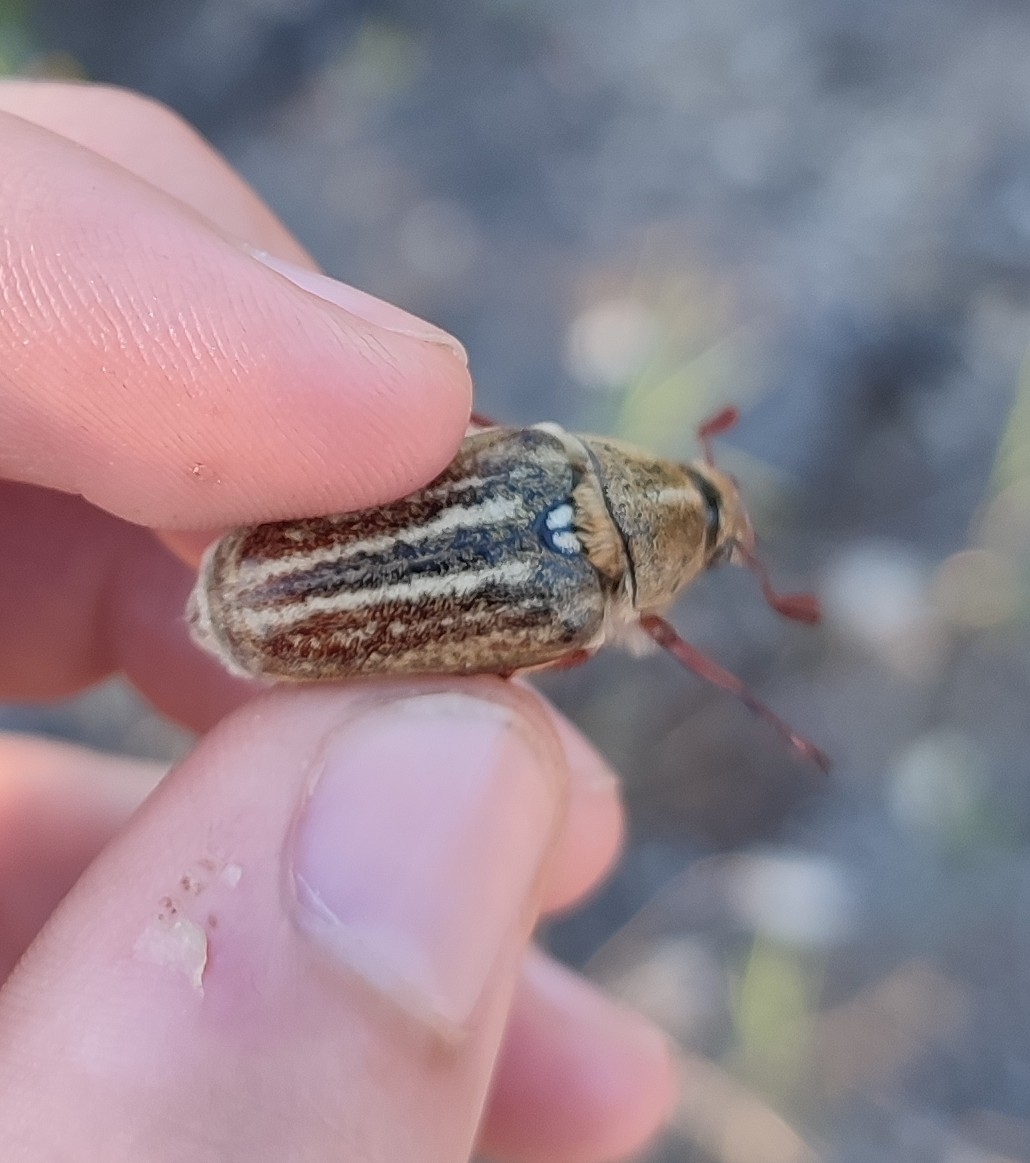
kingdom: Animalia
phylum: Arthropoda
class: Insecta
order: Coleoptera
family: Scarabaeidae
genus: Anoxia
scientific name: Anoxia australis
